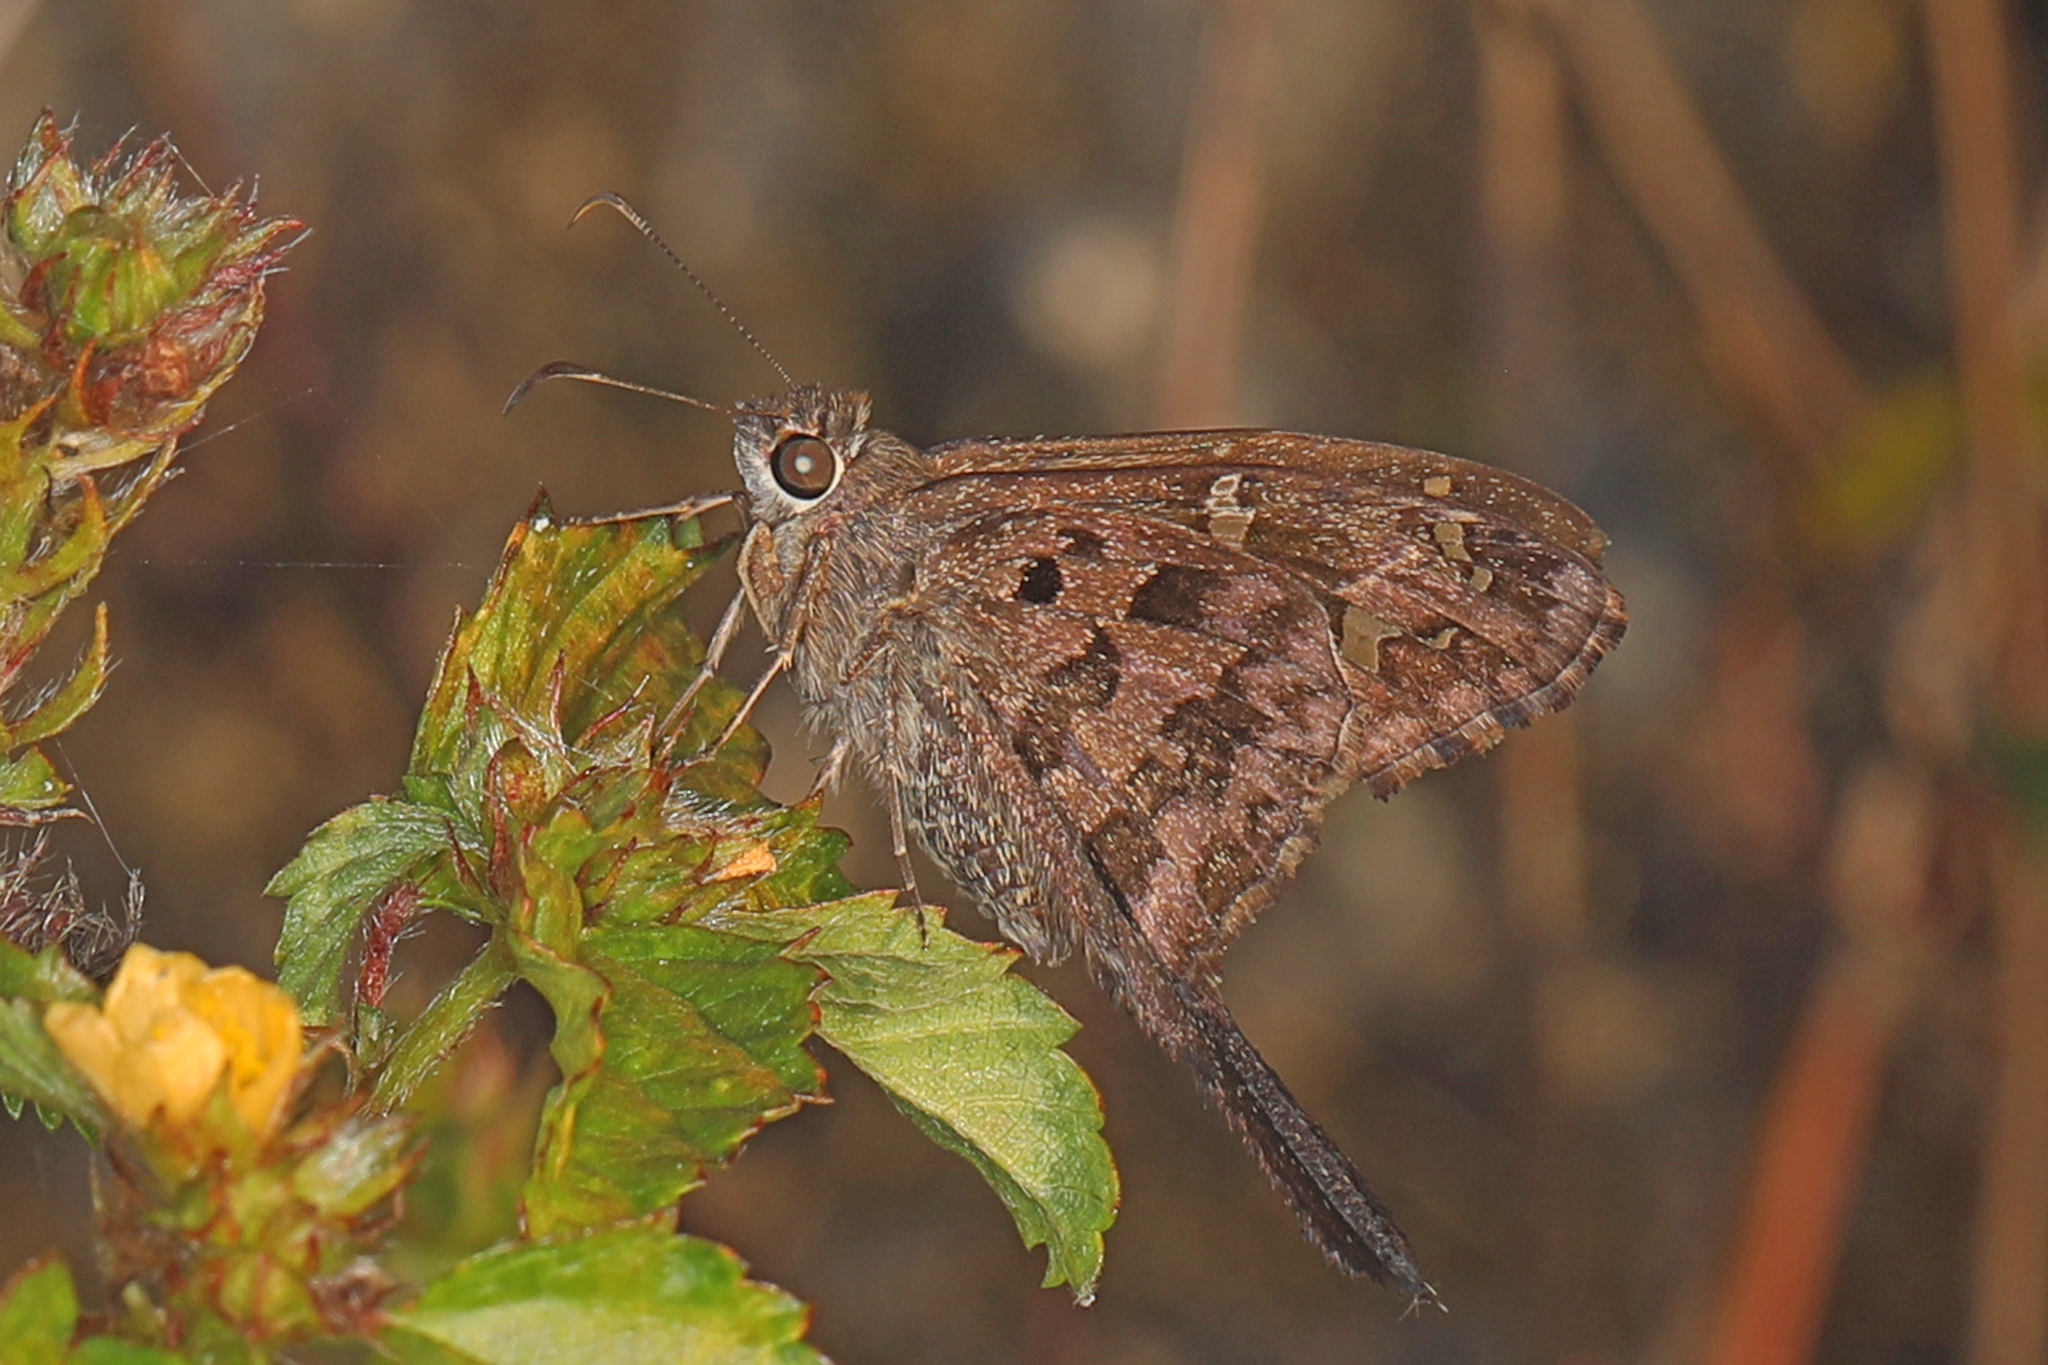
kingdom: Animalia
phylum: Arthropoda
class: Insecta
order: Lepidoptera
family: Hesperiidae
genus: Thorybes
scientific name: Thorybes
